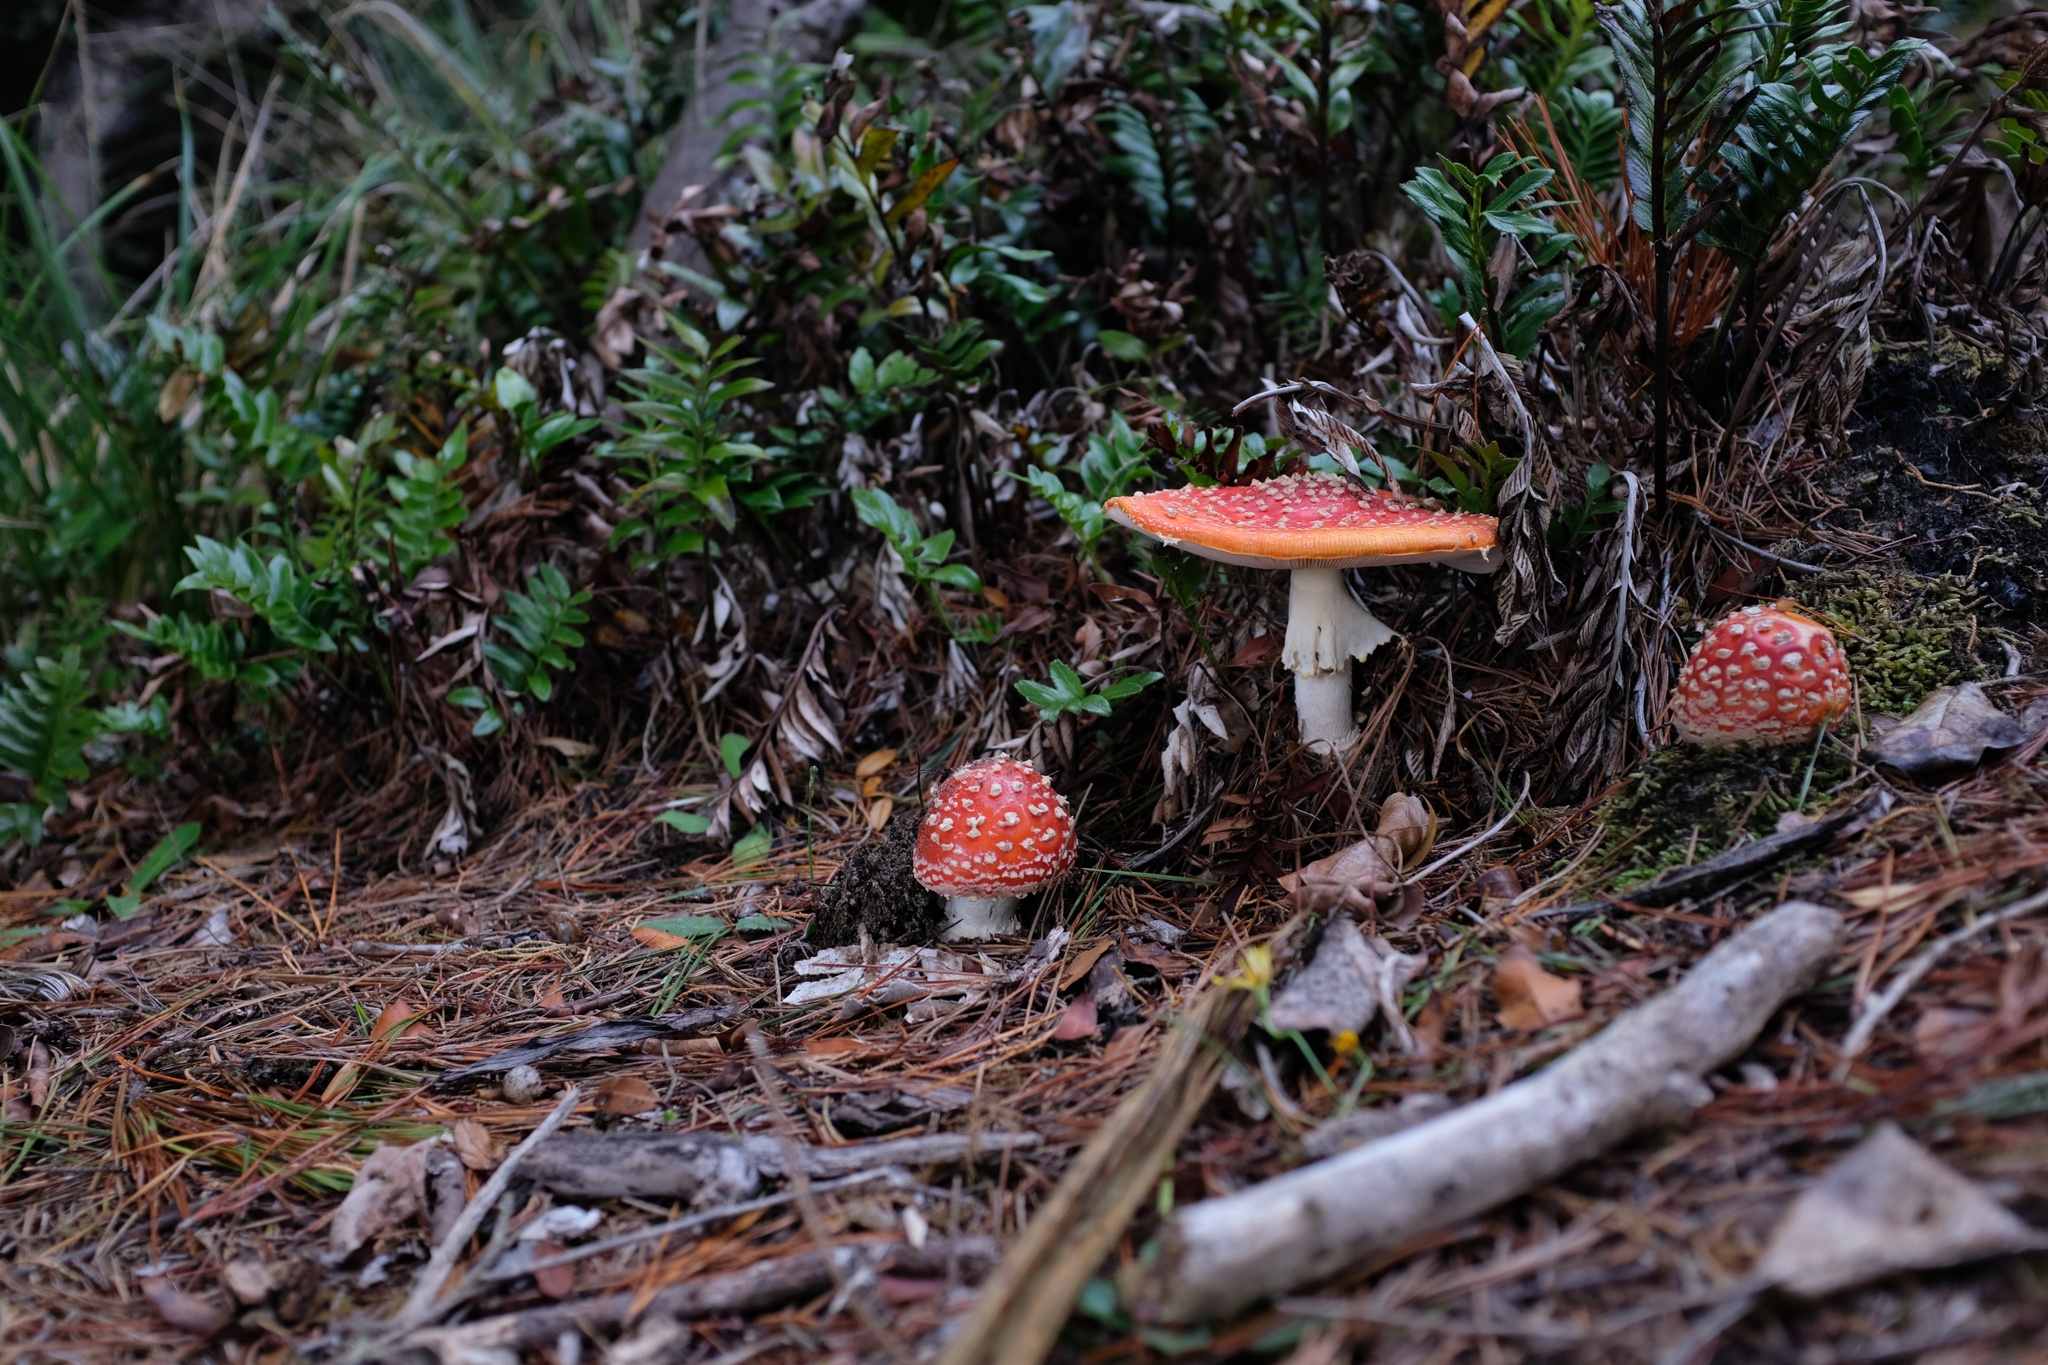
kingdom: Fungi
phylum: Basidiomycota
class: Agaricomycetes
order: Agaricales
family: Amanitaceae
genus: Amanita
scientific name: Amanita muscaria
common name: Fly agaric
